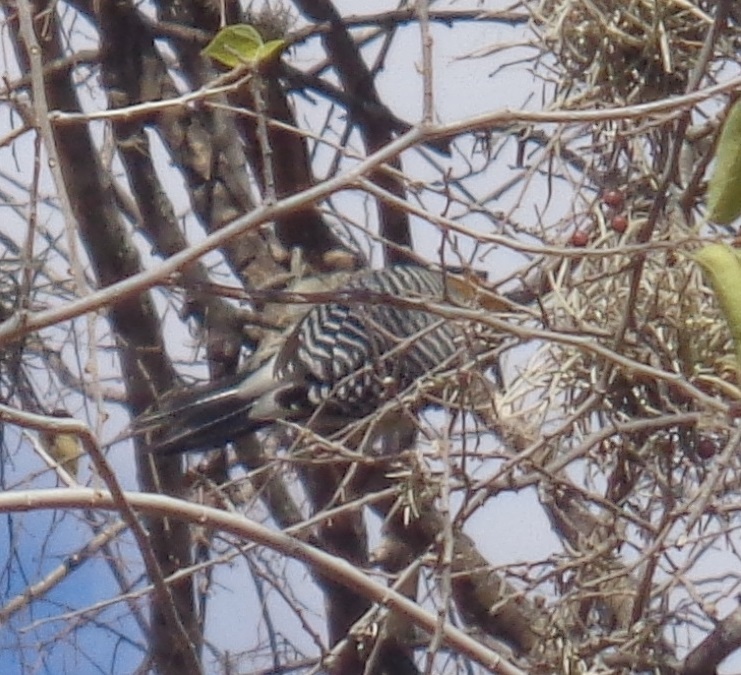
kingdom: Animalia
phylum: Chordata
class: Aves
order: Piciformes
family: Picidae
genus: Melanerpes
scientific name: Melanerpes aurifrons
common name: Golden-fronted woodpecker
